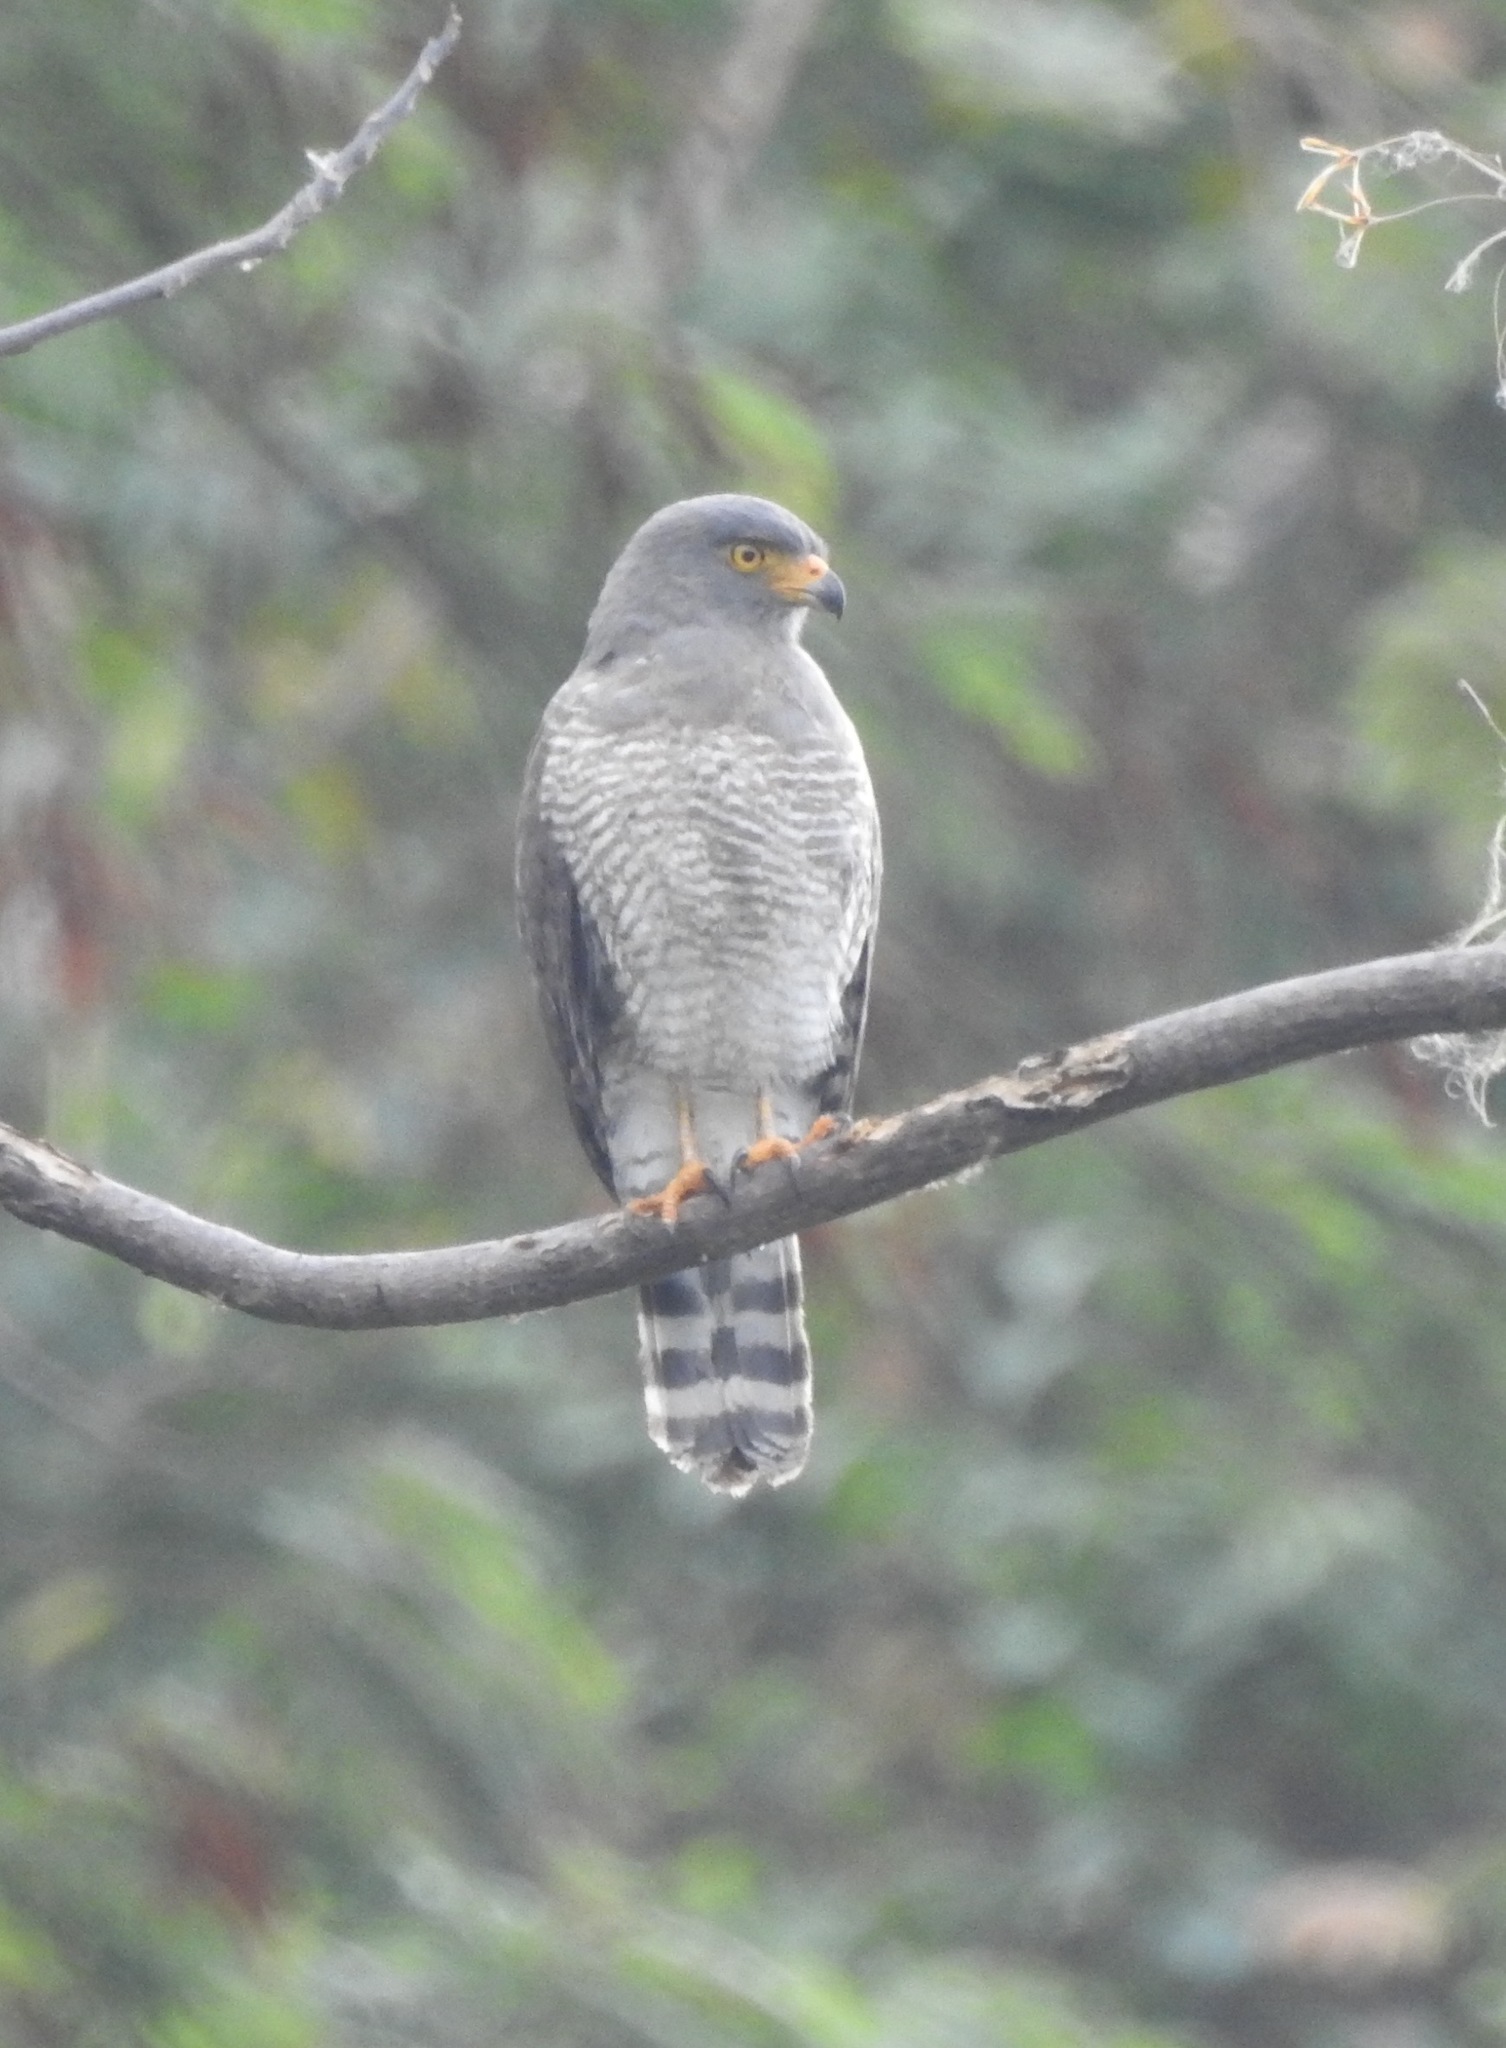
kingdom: Animalia
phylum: Chordata
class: Aves
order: Accipitriformes
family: Accipitridae
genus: Rupornis
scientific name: Rupornis magnirostris
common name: Roadside hawk
